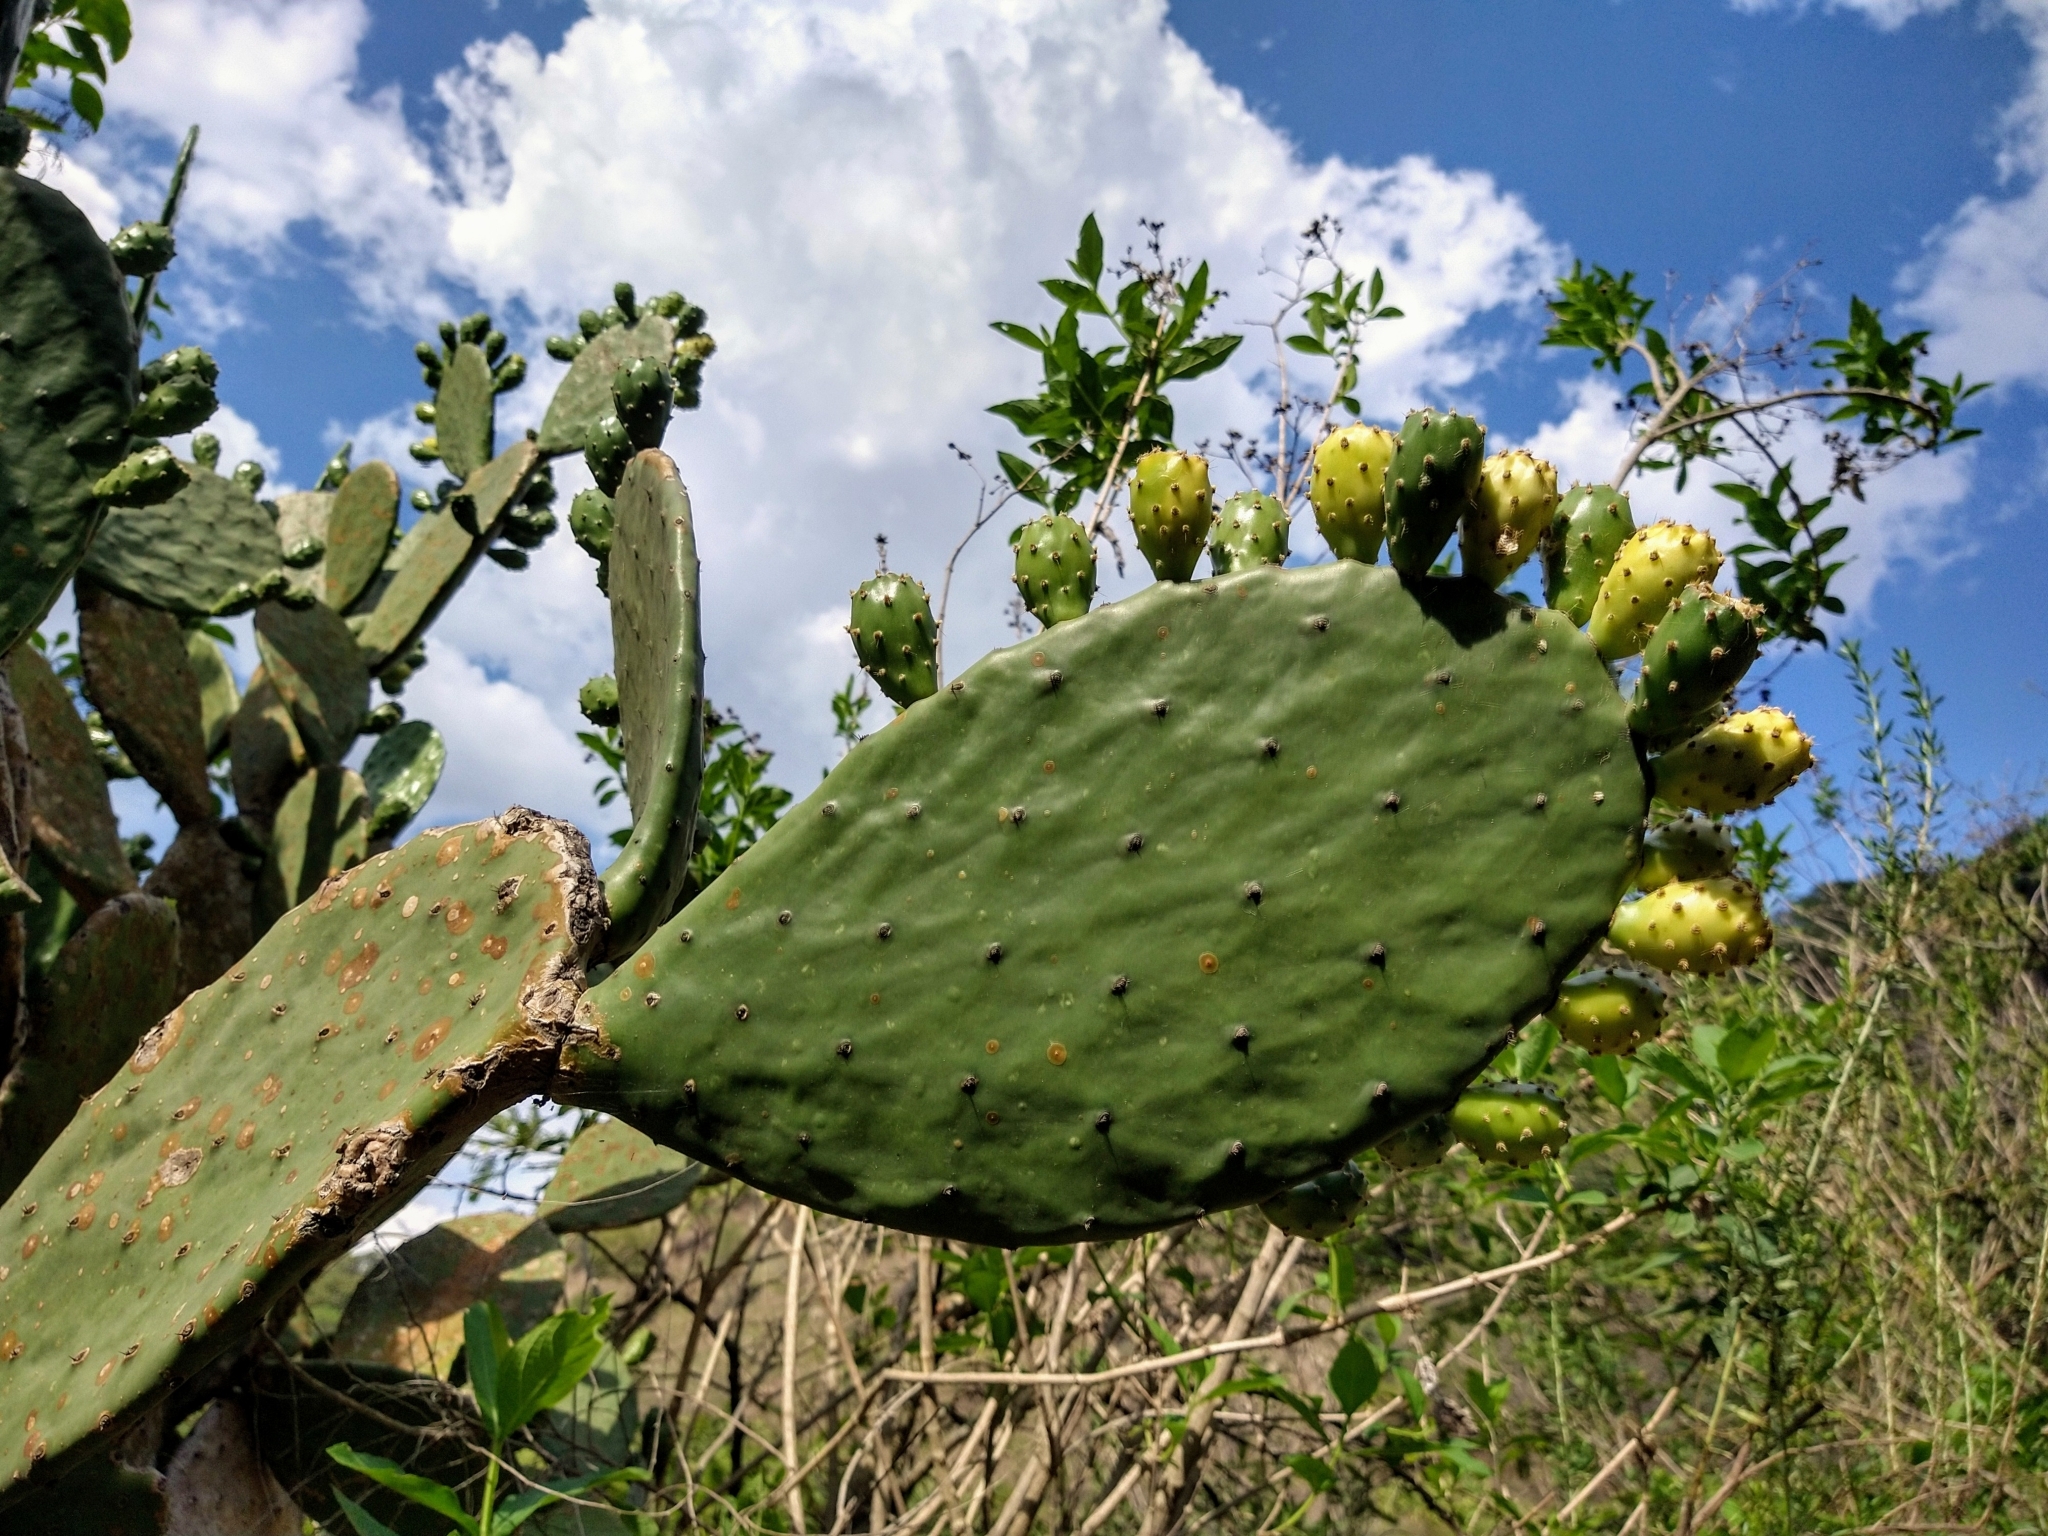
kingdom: Plantae
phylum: Tracheophyta
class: Magnoliopsida
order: Caryophyllales
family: Cactaceae
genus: Opuntia
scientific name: Opuntia ficus-indica
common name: Barbary fig
